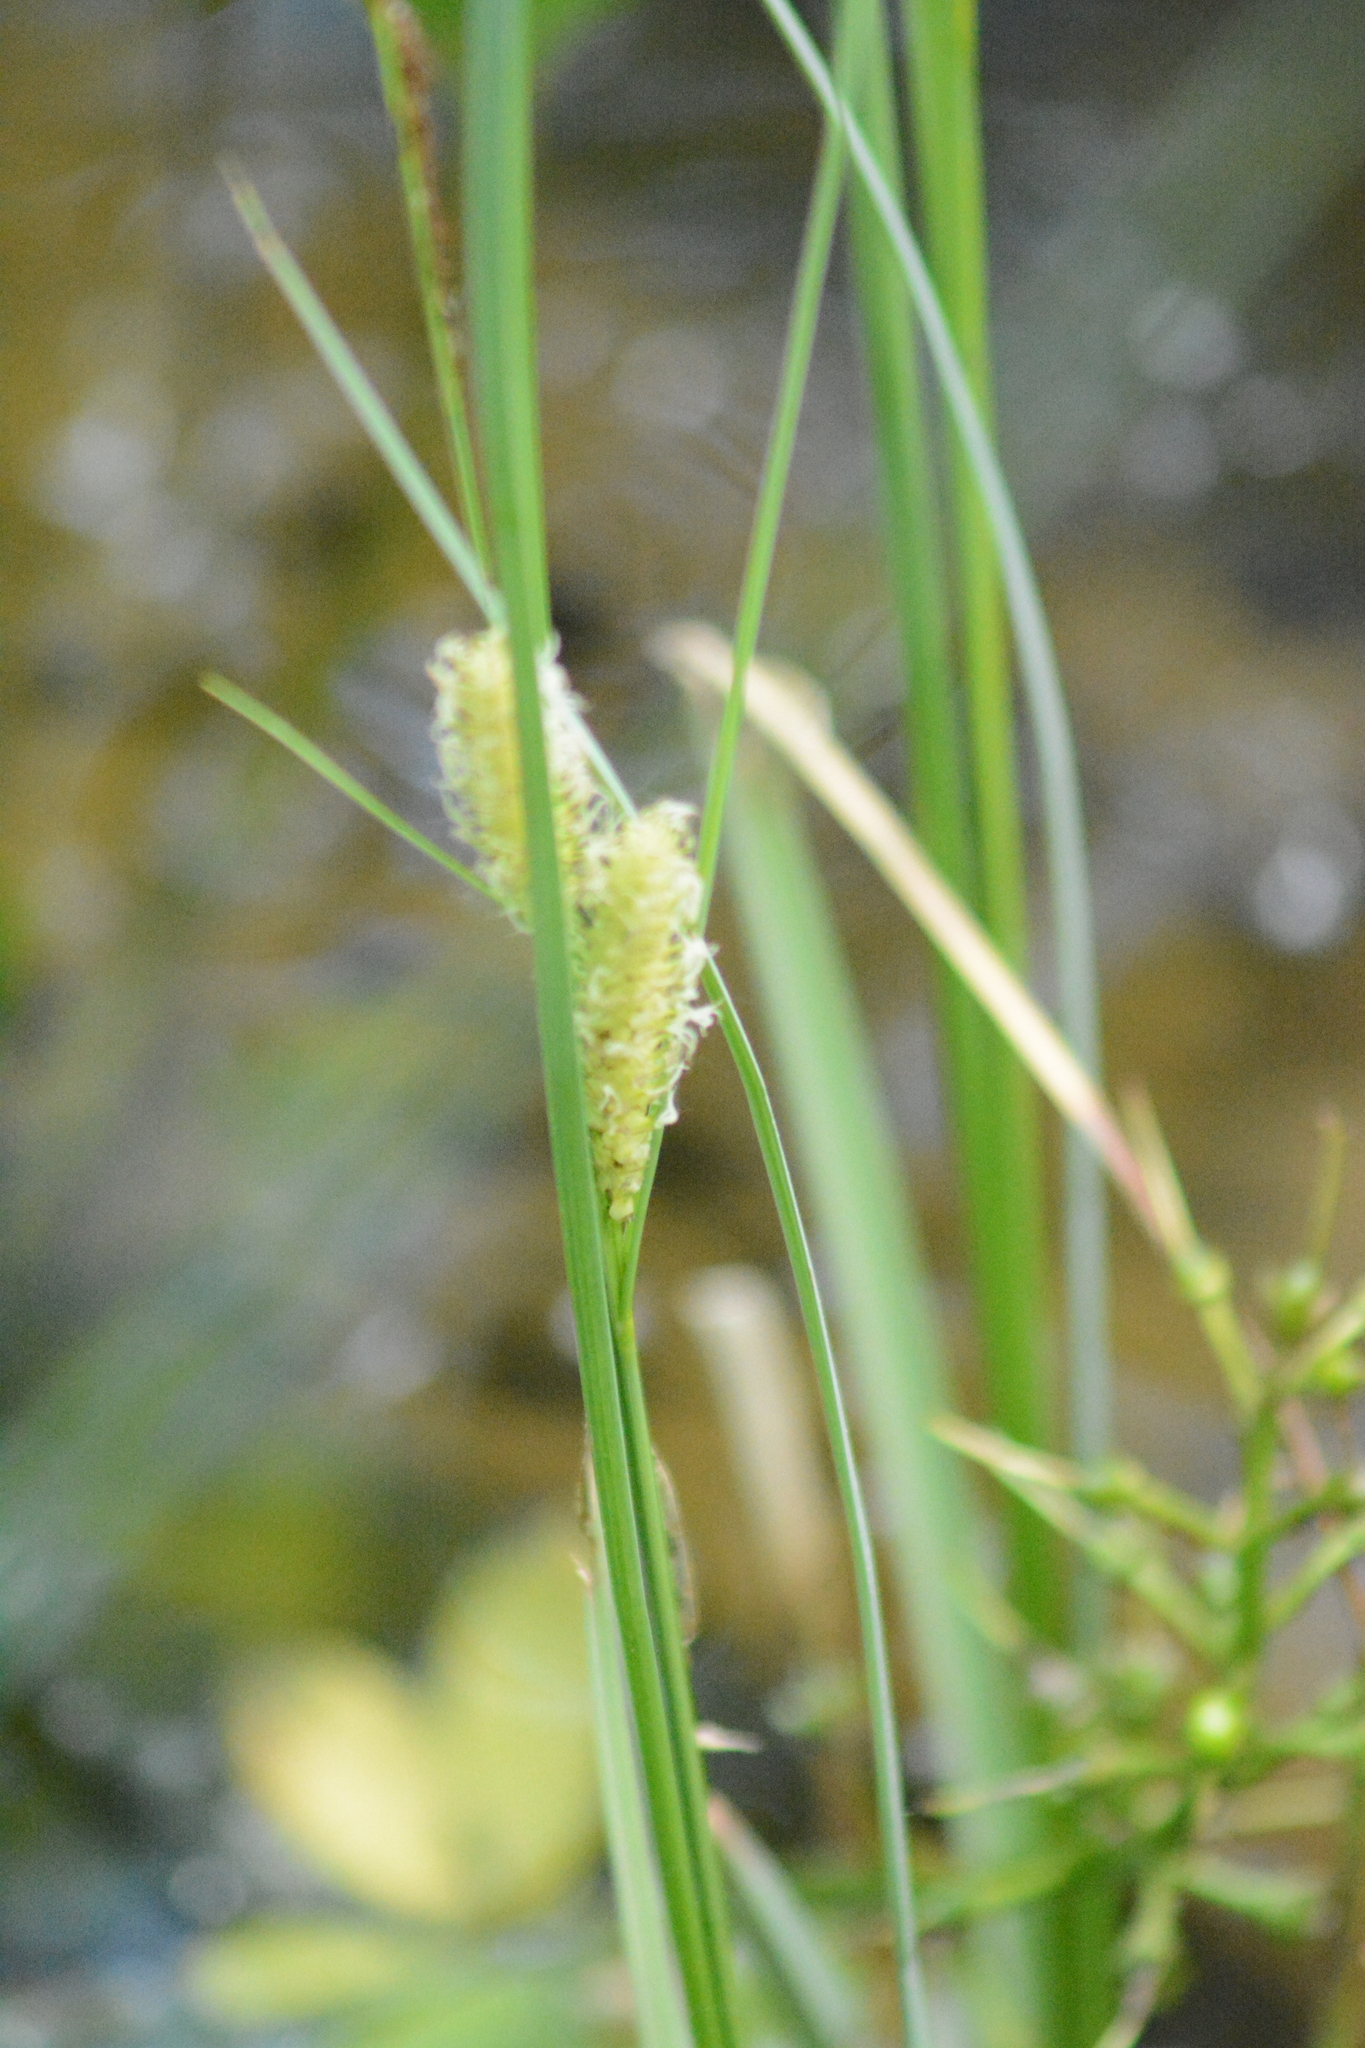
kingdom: Plantae
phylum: Tracheophyta
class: Liliopsida
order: Poales
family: Cyperaceae
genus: Carex
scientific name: Carex rostrata
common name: Bottle sedge
